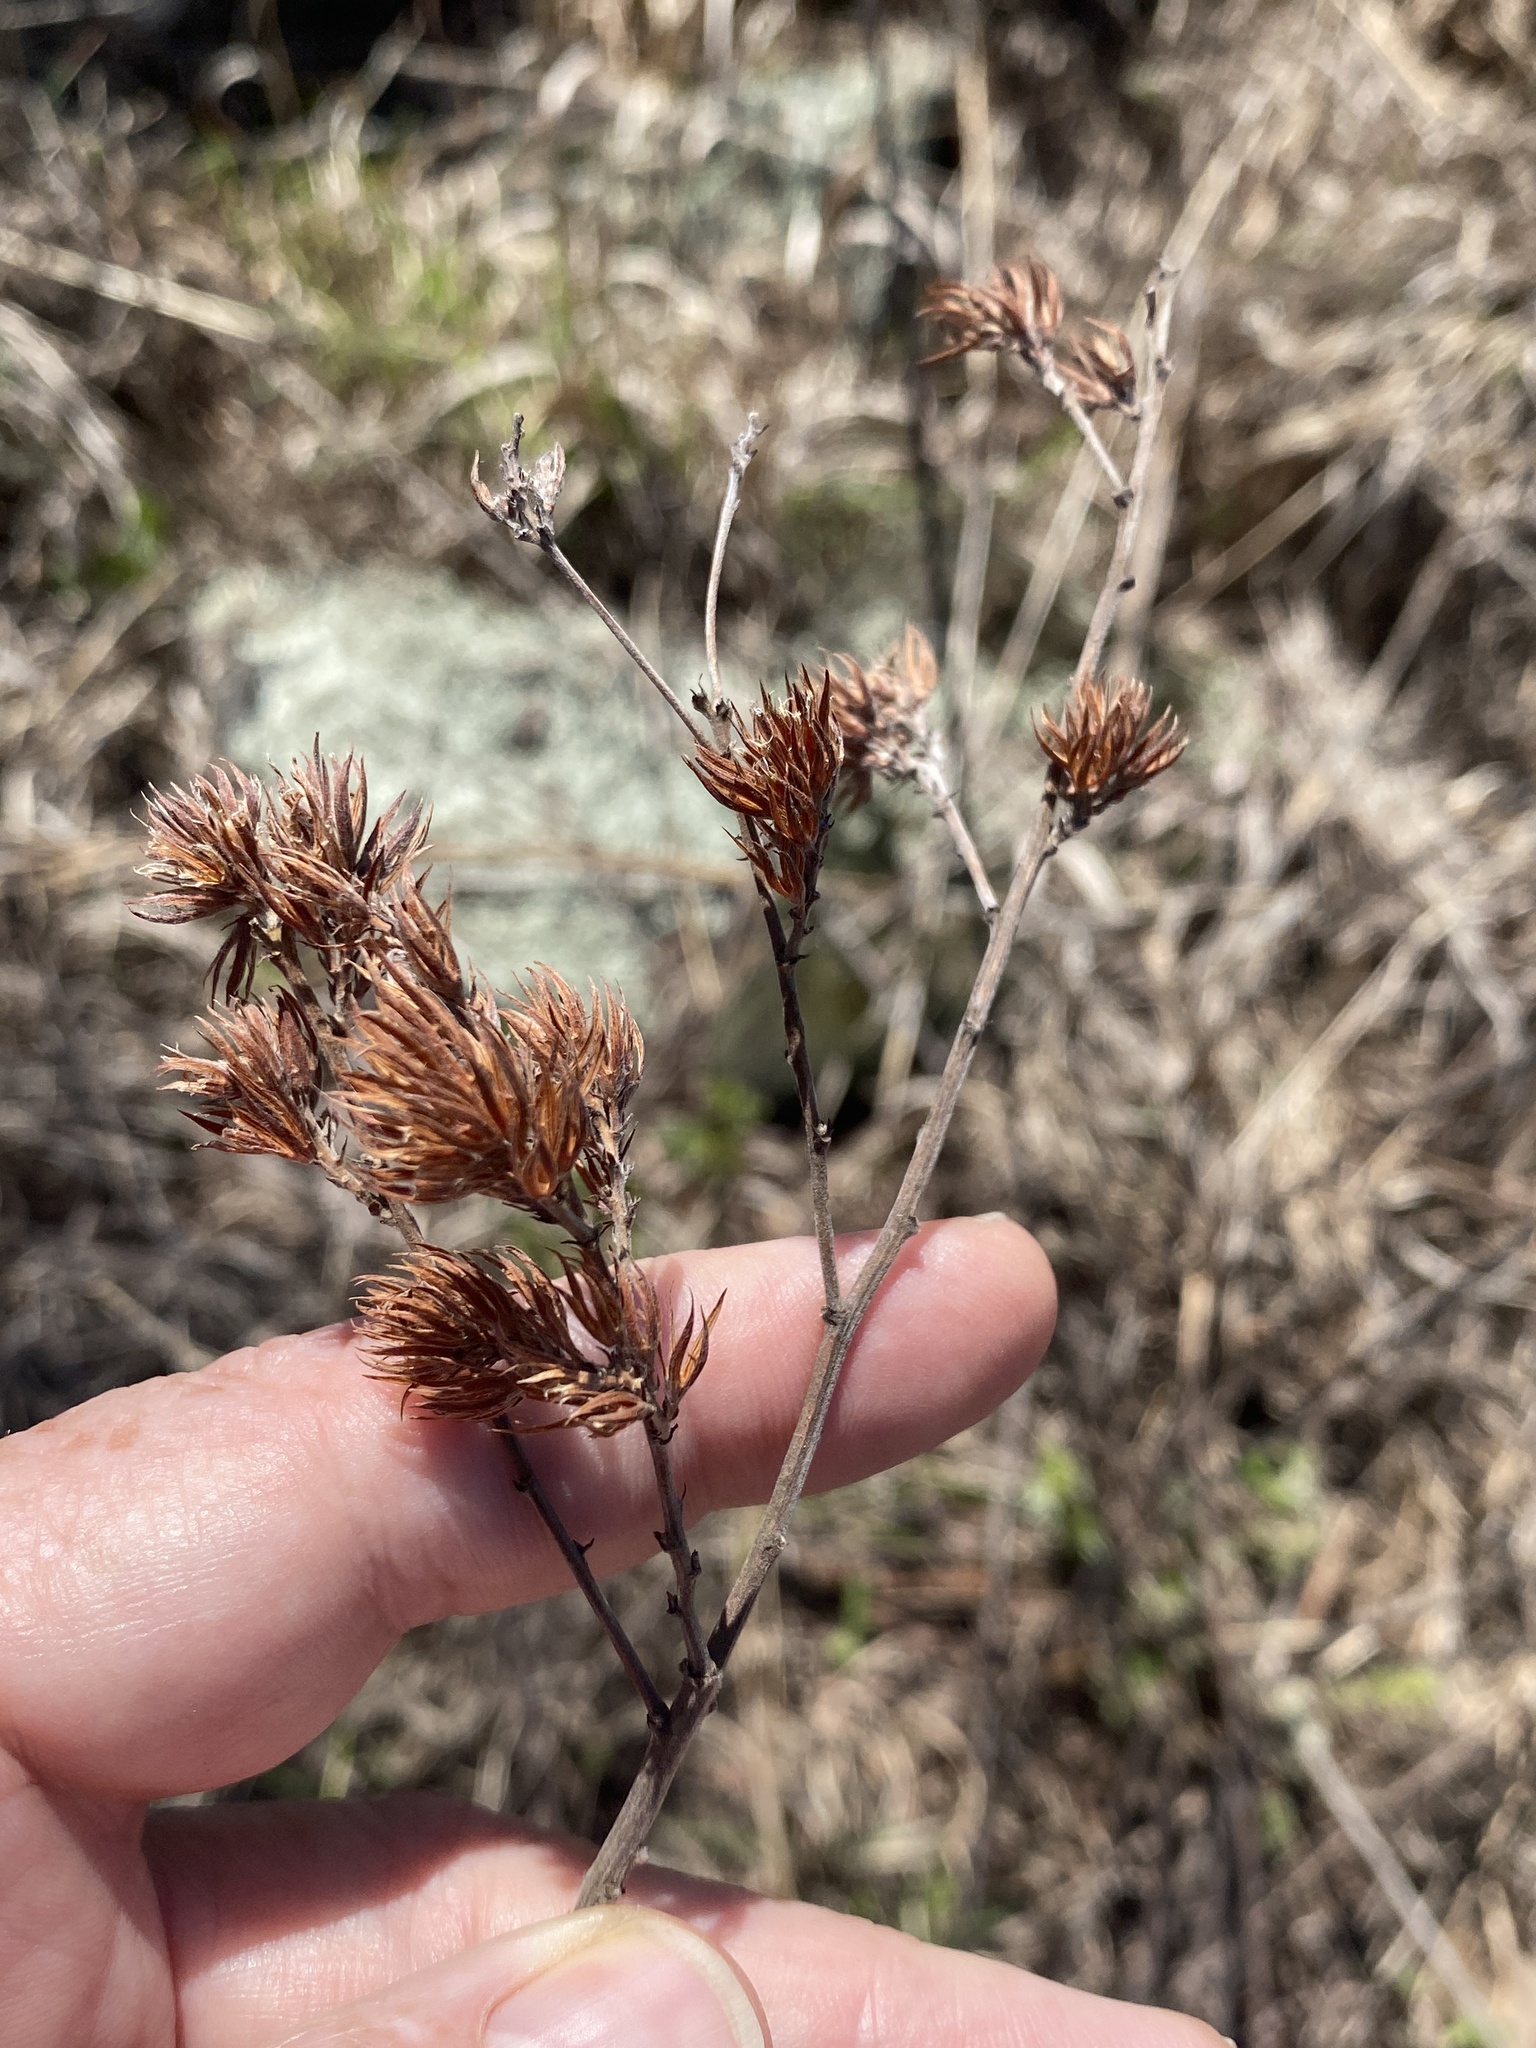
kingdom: Plantae
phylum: Tracheophyta
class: Magnoliopsida
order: Fabales
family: Fabaceae
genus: Lespedeza
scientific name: Lespedeza hirta
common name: Hairy lespedeza
